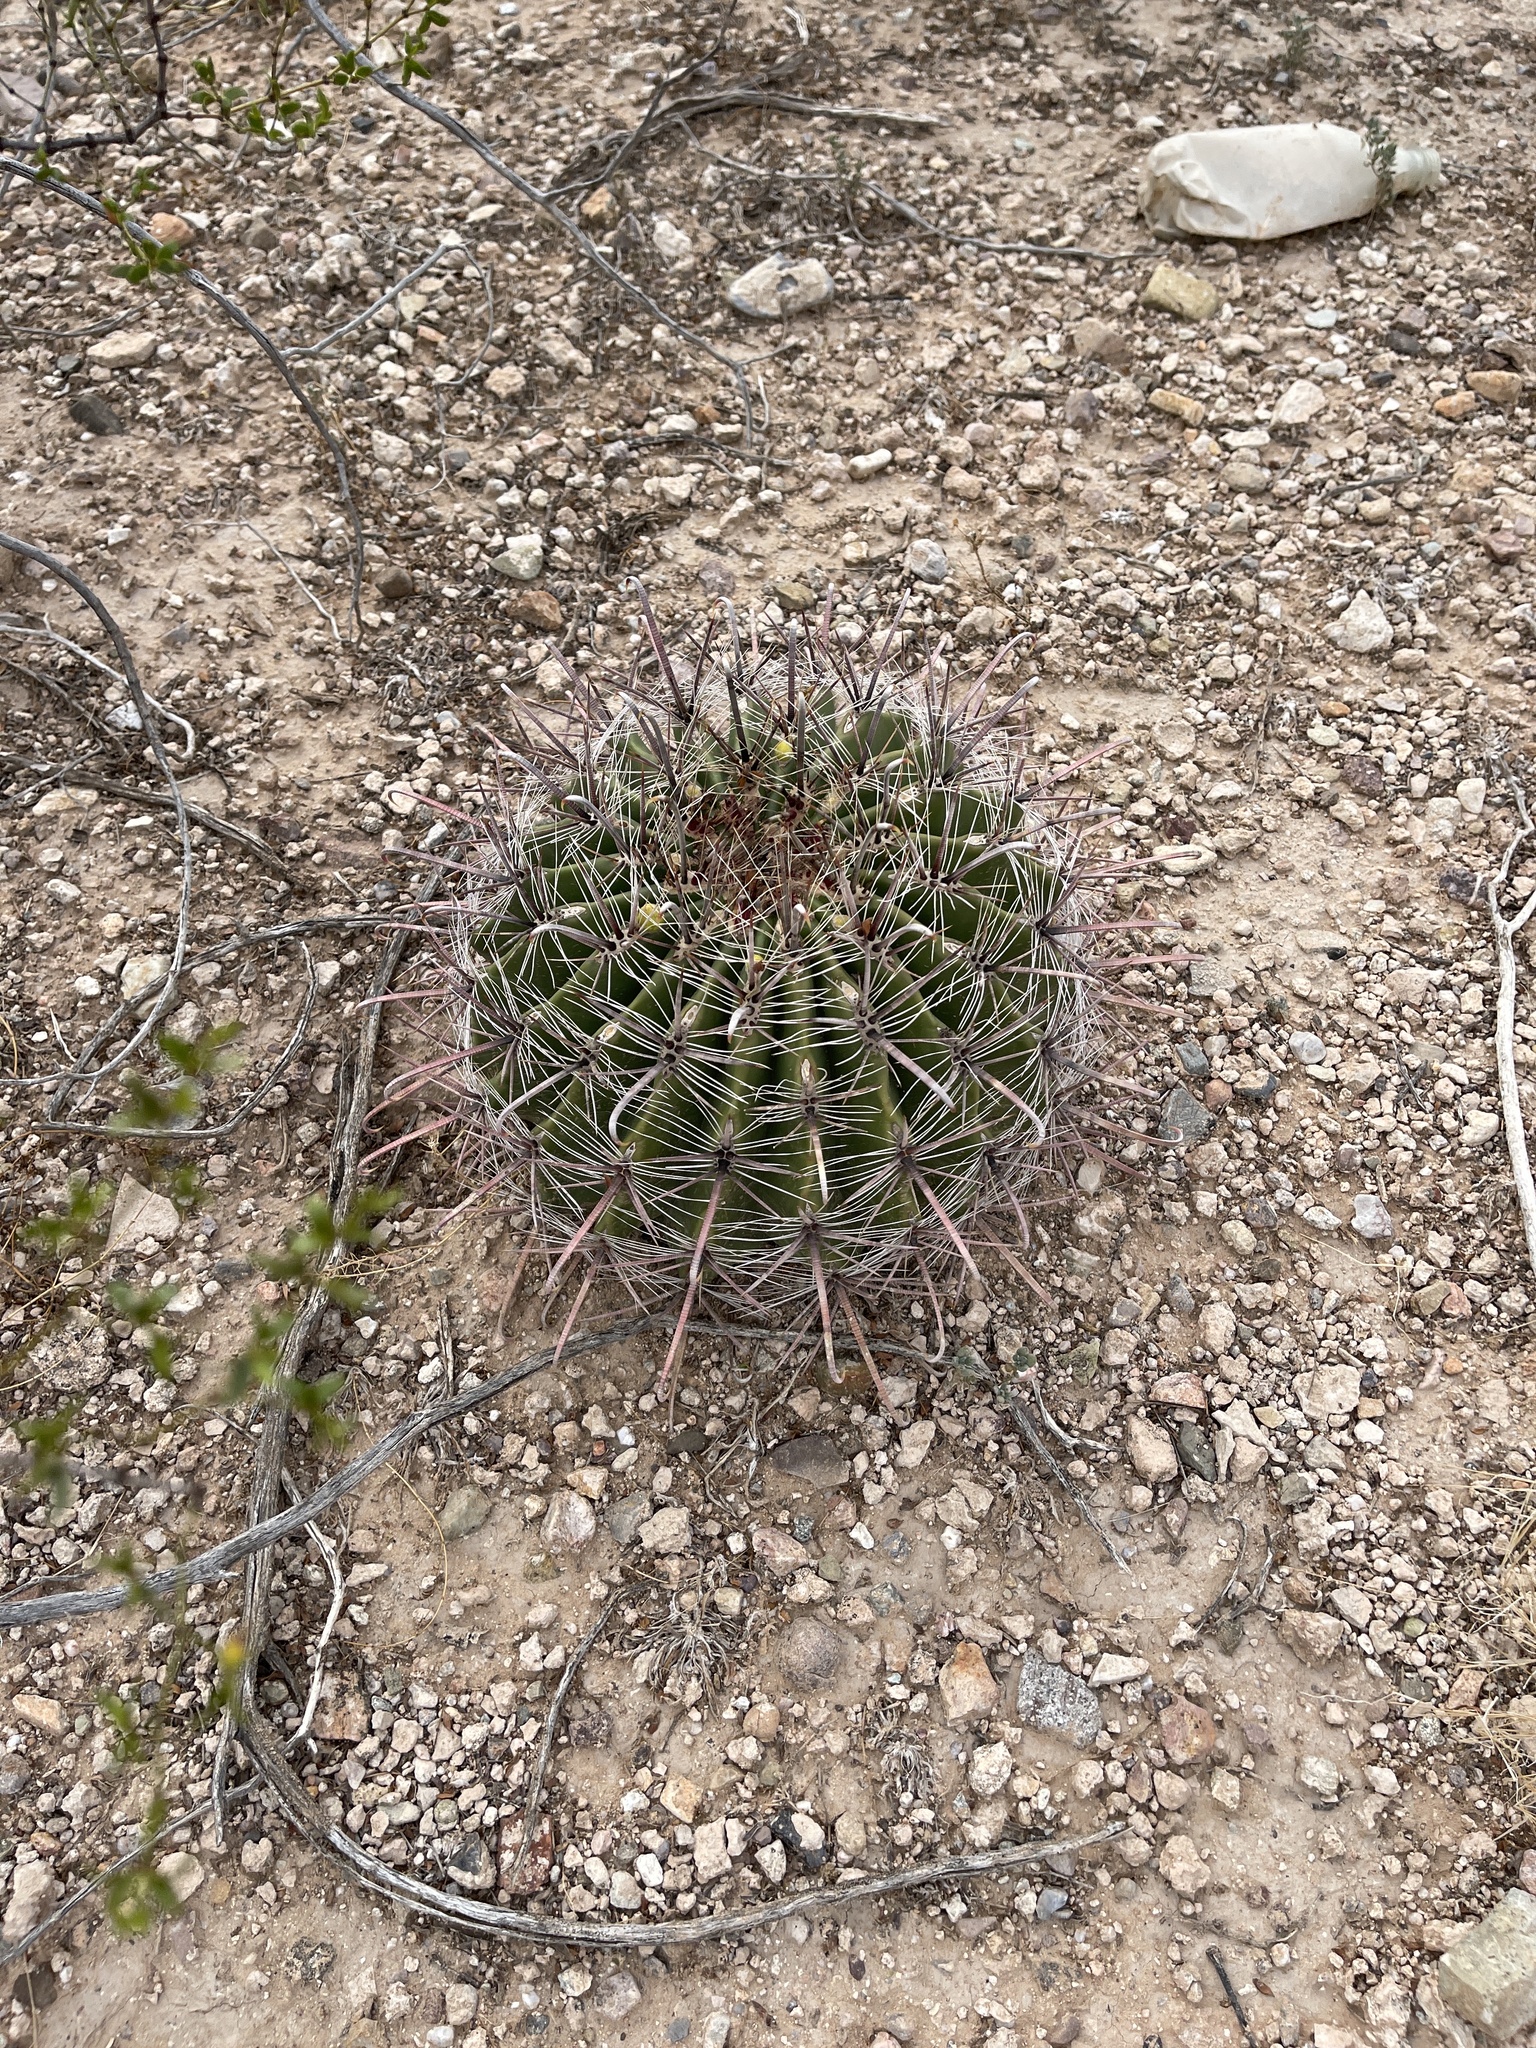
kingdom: Plantae
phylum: Tracheophyta
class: Magnoliopsida
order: Caryophyllales
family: Cactaceae
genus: Ferocactus
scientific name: Ferocactus wislizeni
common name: Candy barrel cactus
